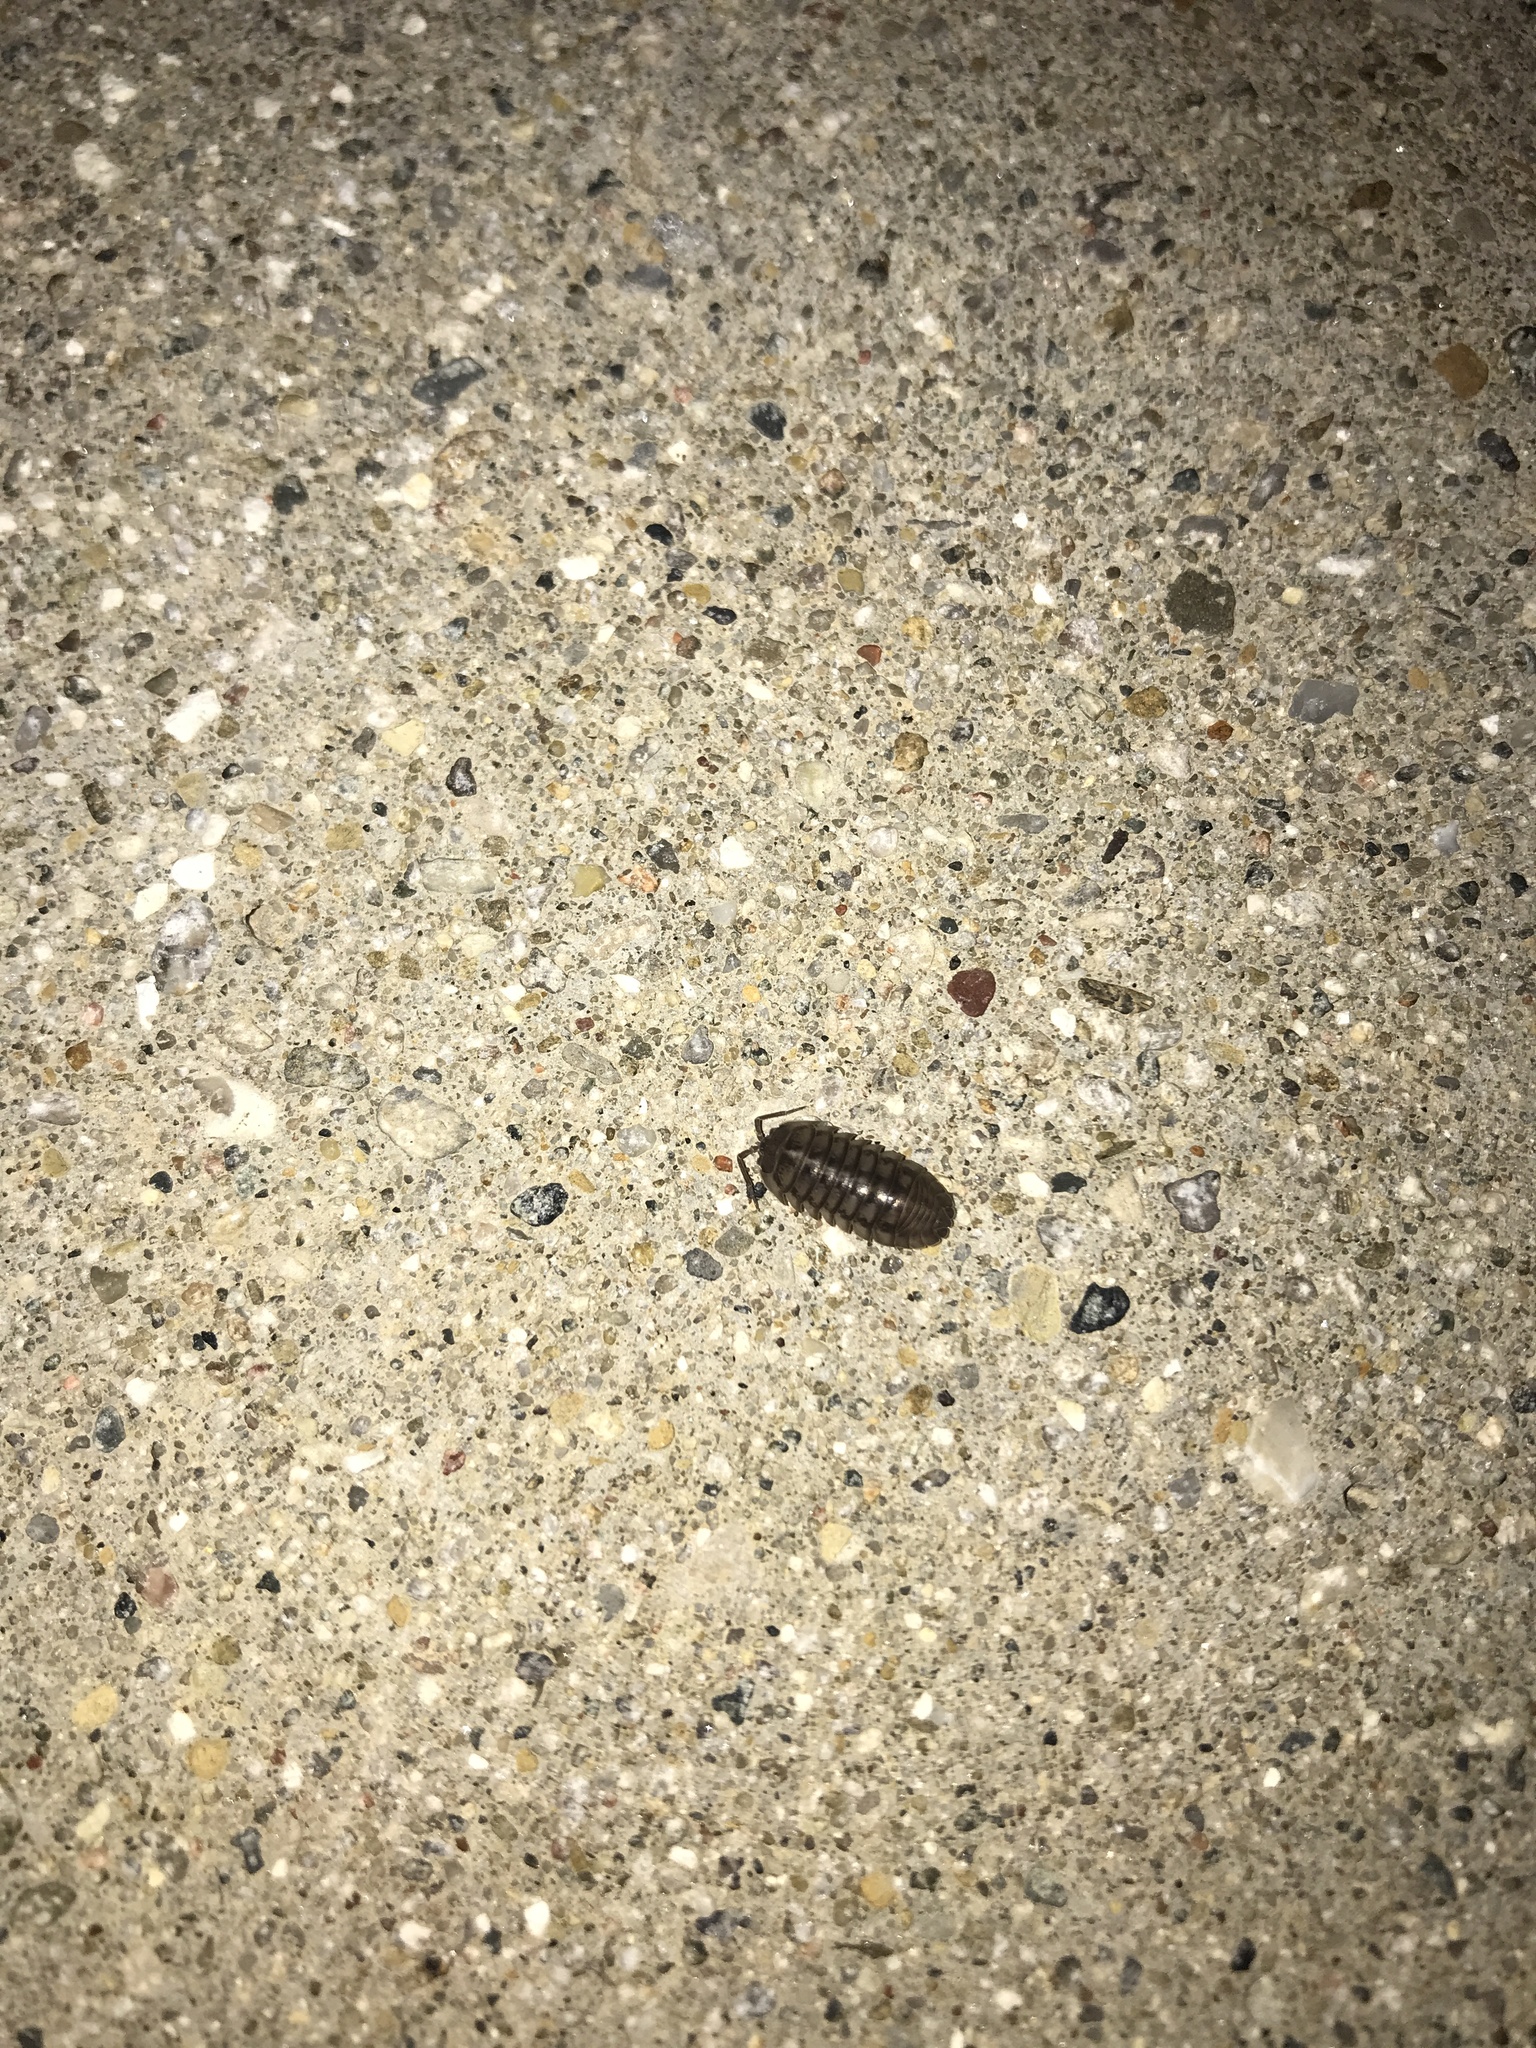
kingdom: Animalia
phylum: Arthropoda
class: Malacostraca
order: Isopoda
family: Armadillidiidae
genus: Armadillidium
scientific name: Armadillidium vulgare
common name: Common pill woodlouse
